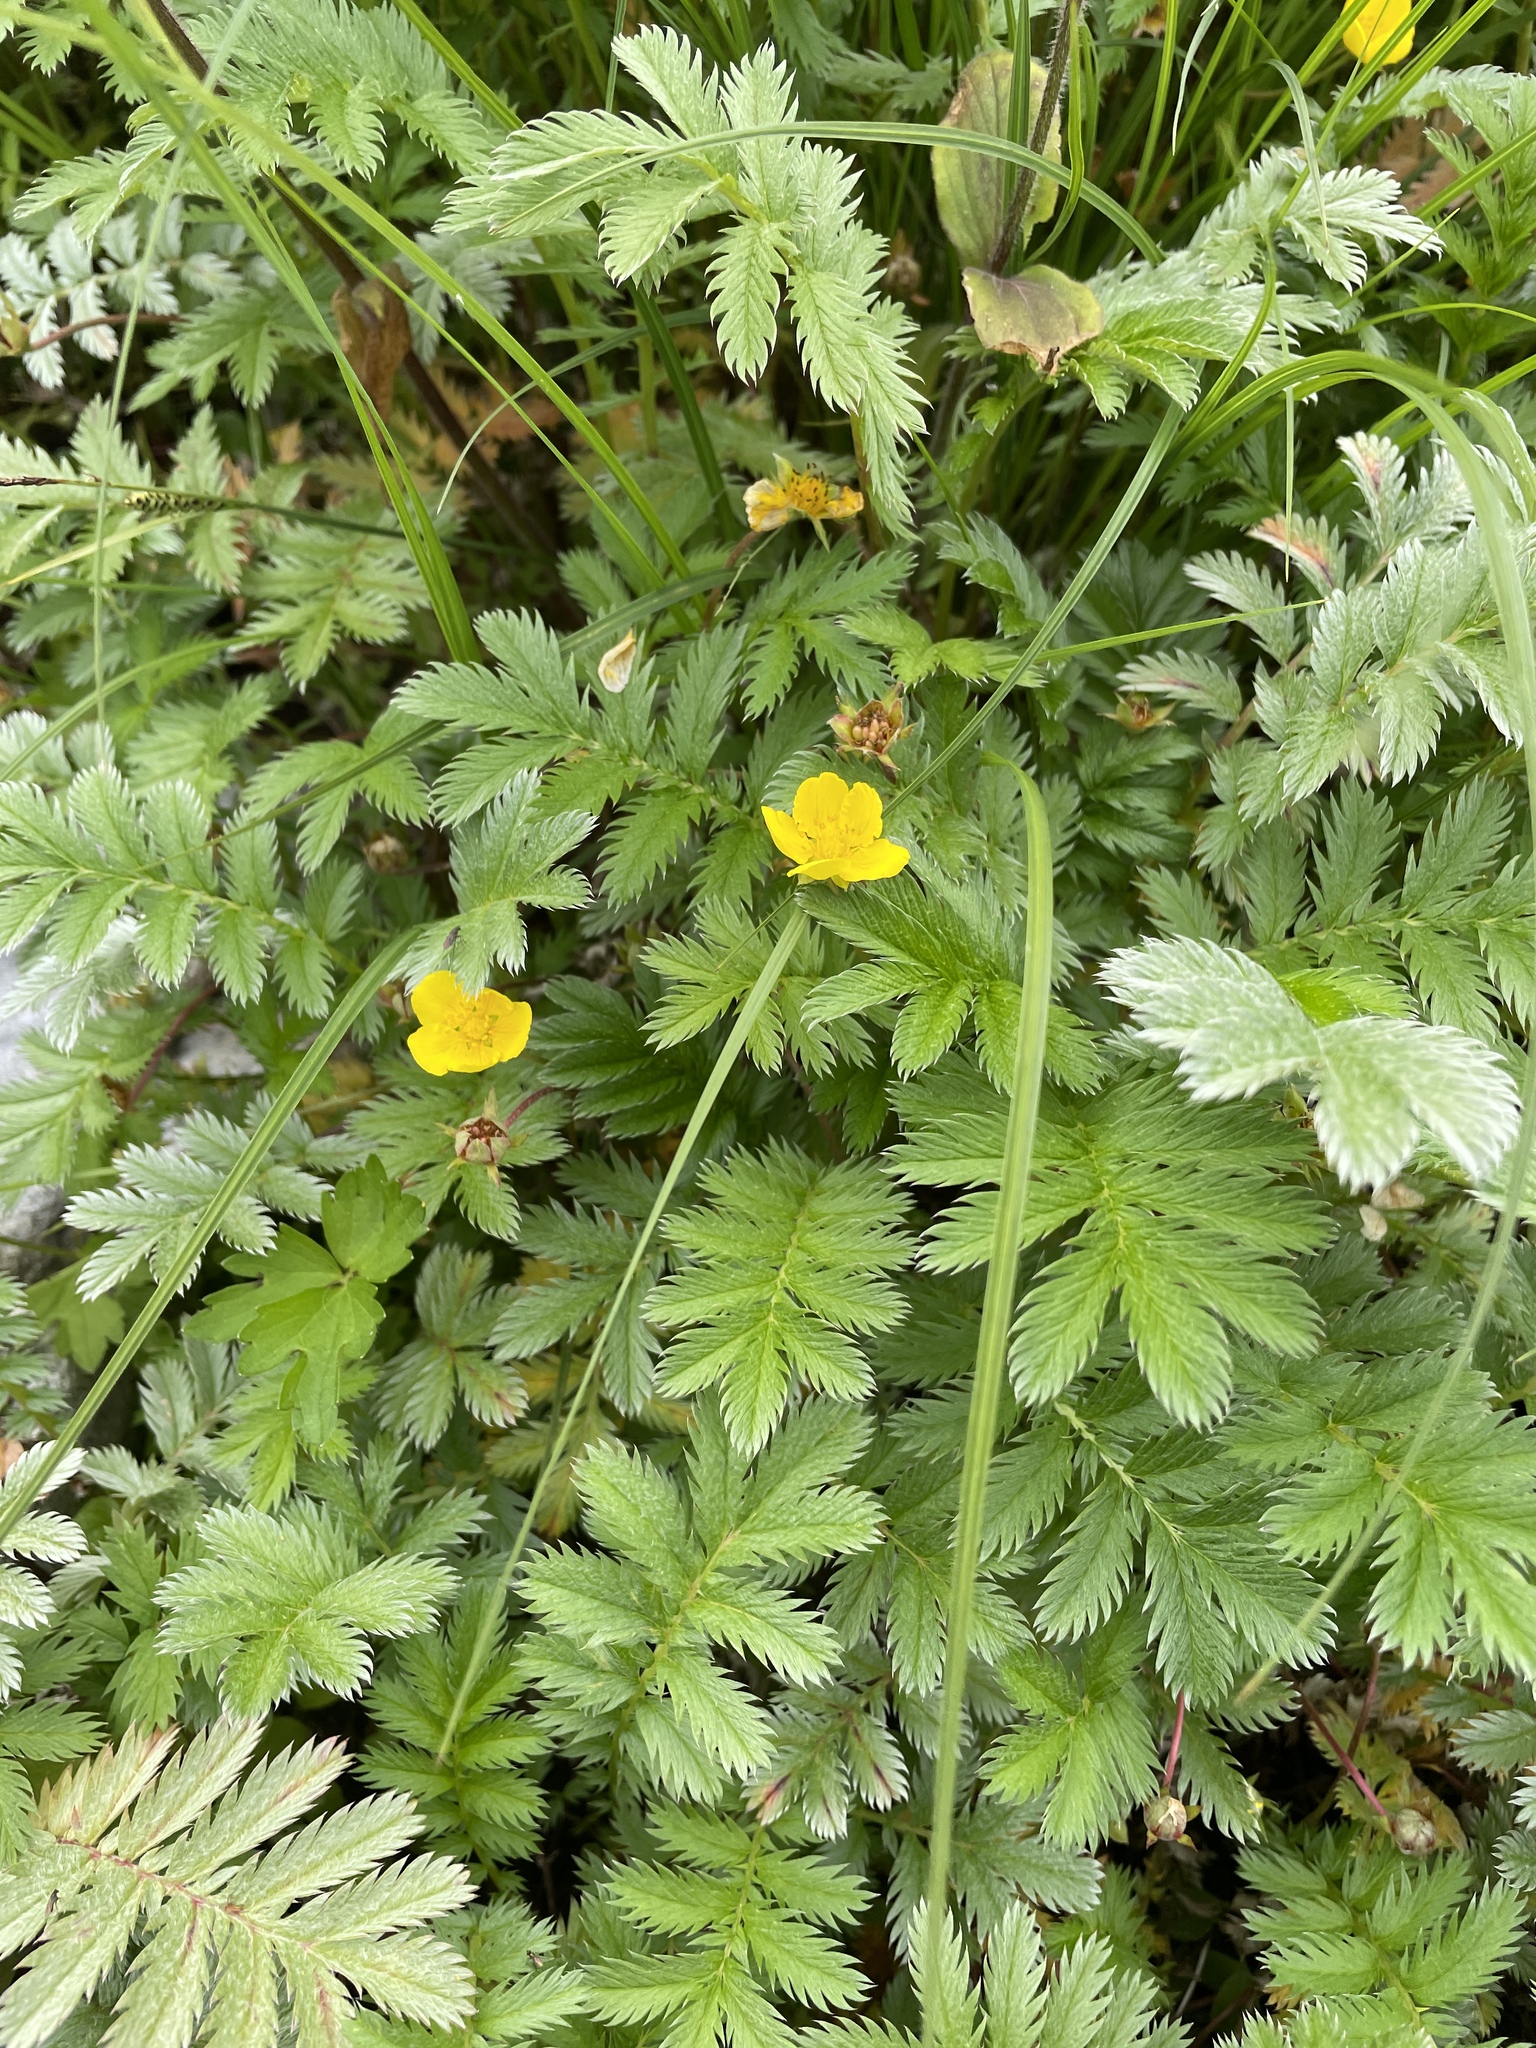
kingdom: Plantae
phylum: Tracheophyta
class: Magnoliopsida
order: Rosales
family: Rosaceae
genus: Argentina
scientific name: Argentina anserina
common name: Common silverweed
